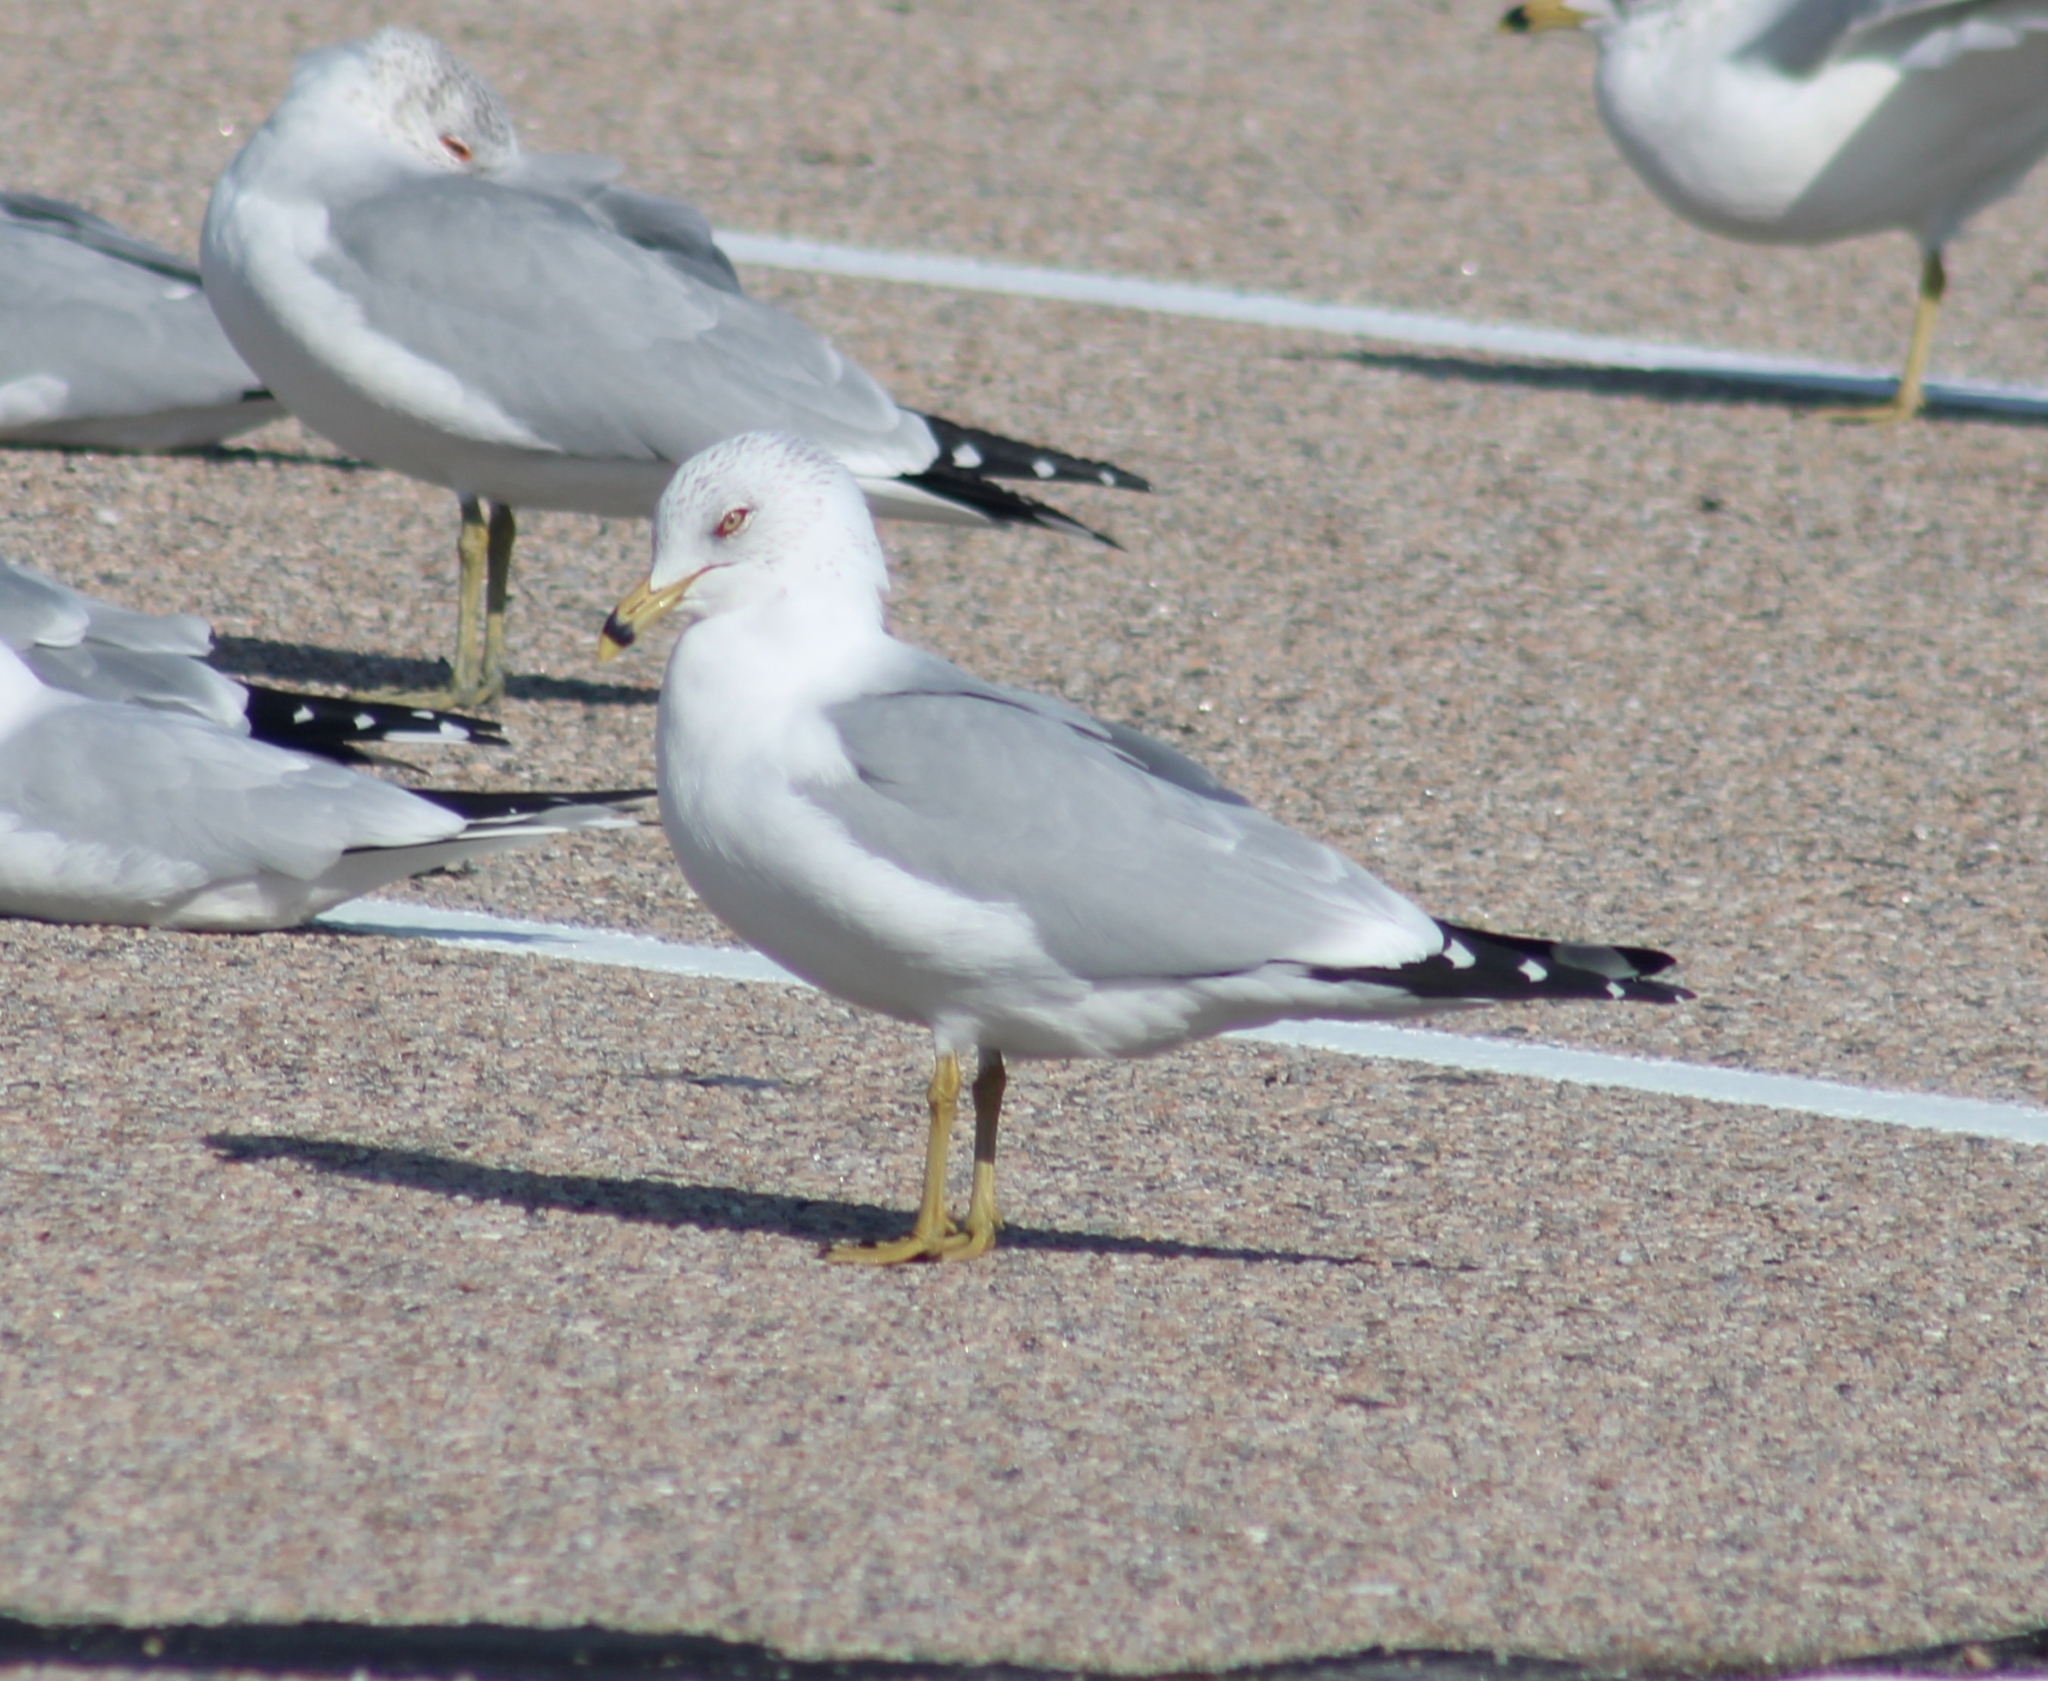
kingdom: Animalia
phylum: Chordata
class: Aves
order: Charadriiformes
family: Laridae
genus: Larus
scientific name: Larus delawarensis
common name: Ring-billed gull
